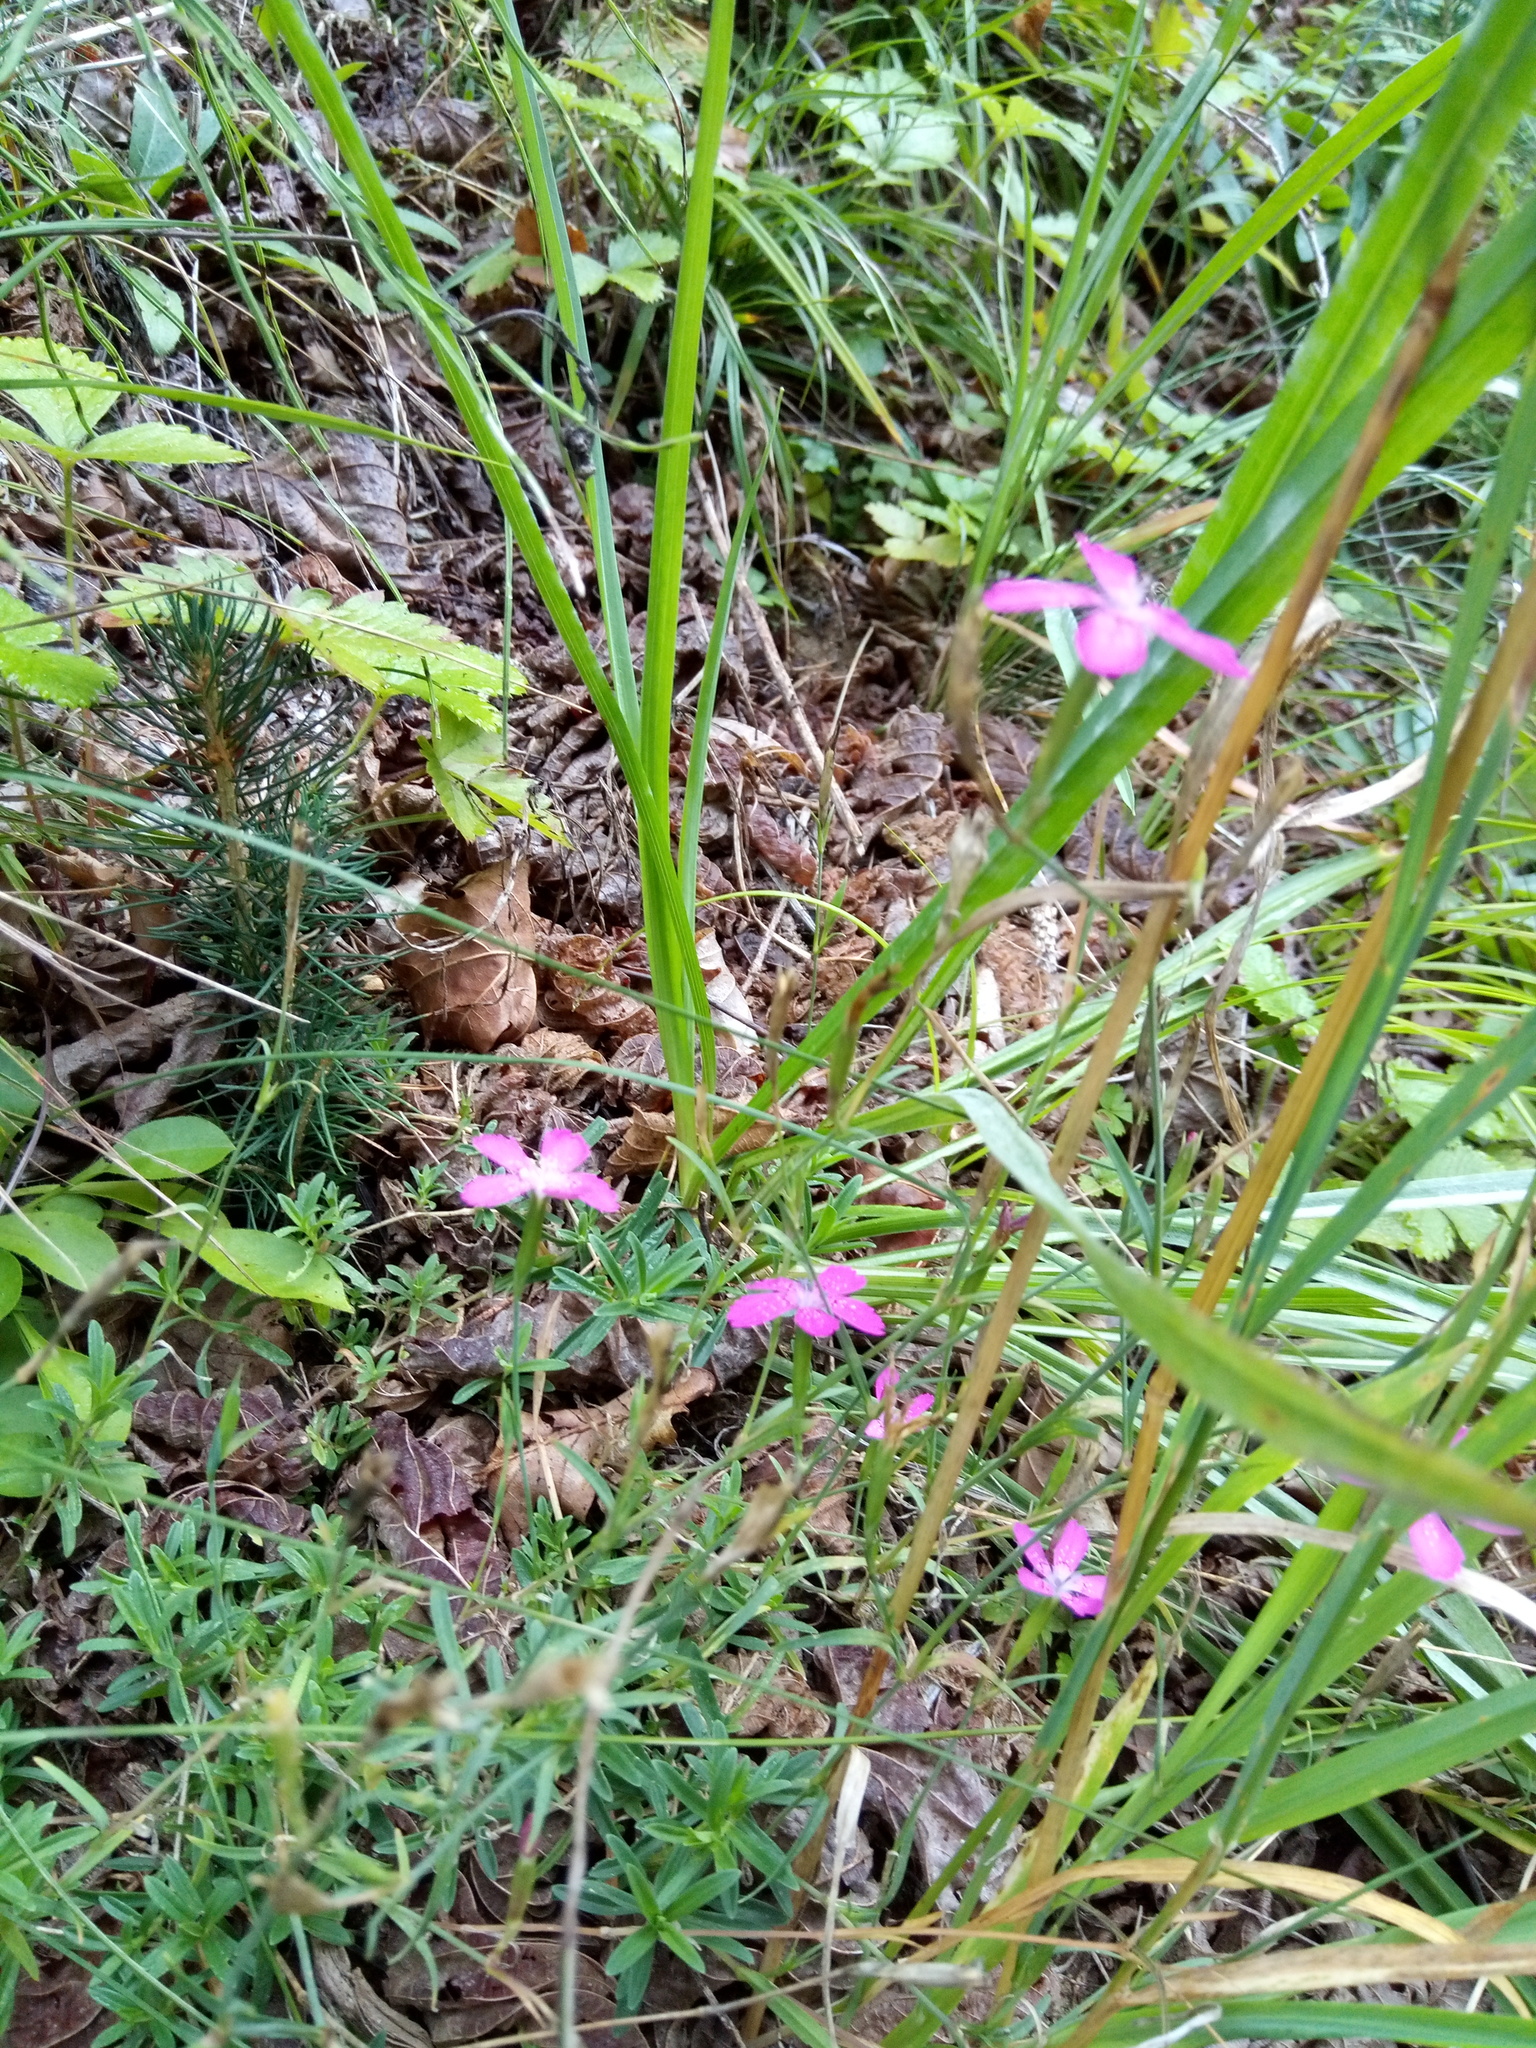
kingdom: Plantae
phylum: Tracheophyta
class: Magnoliopsida
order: Caryophyllales
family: Caryophyllaceae
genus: Dianthus
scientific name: Dianthus deltoides
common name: Maiden pink
